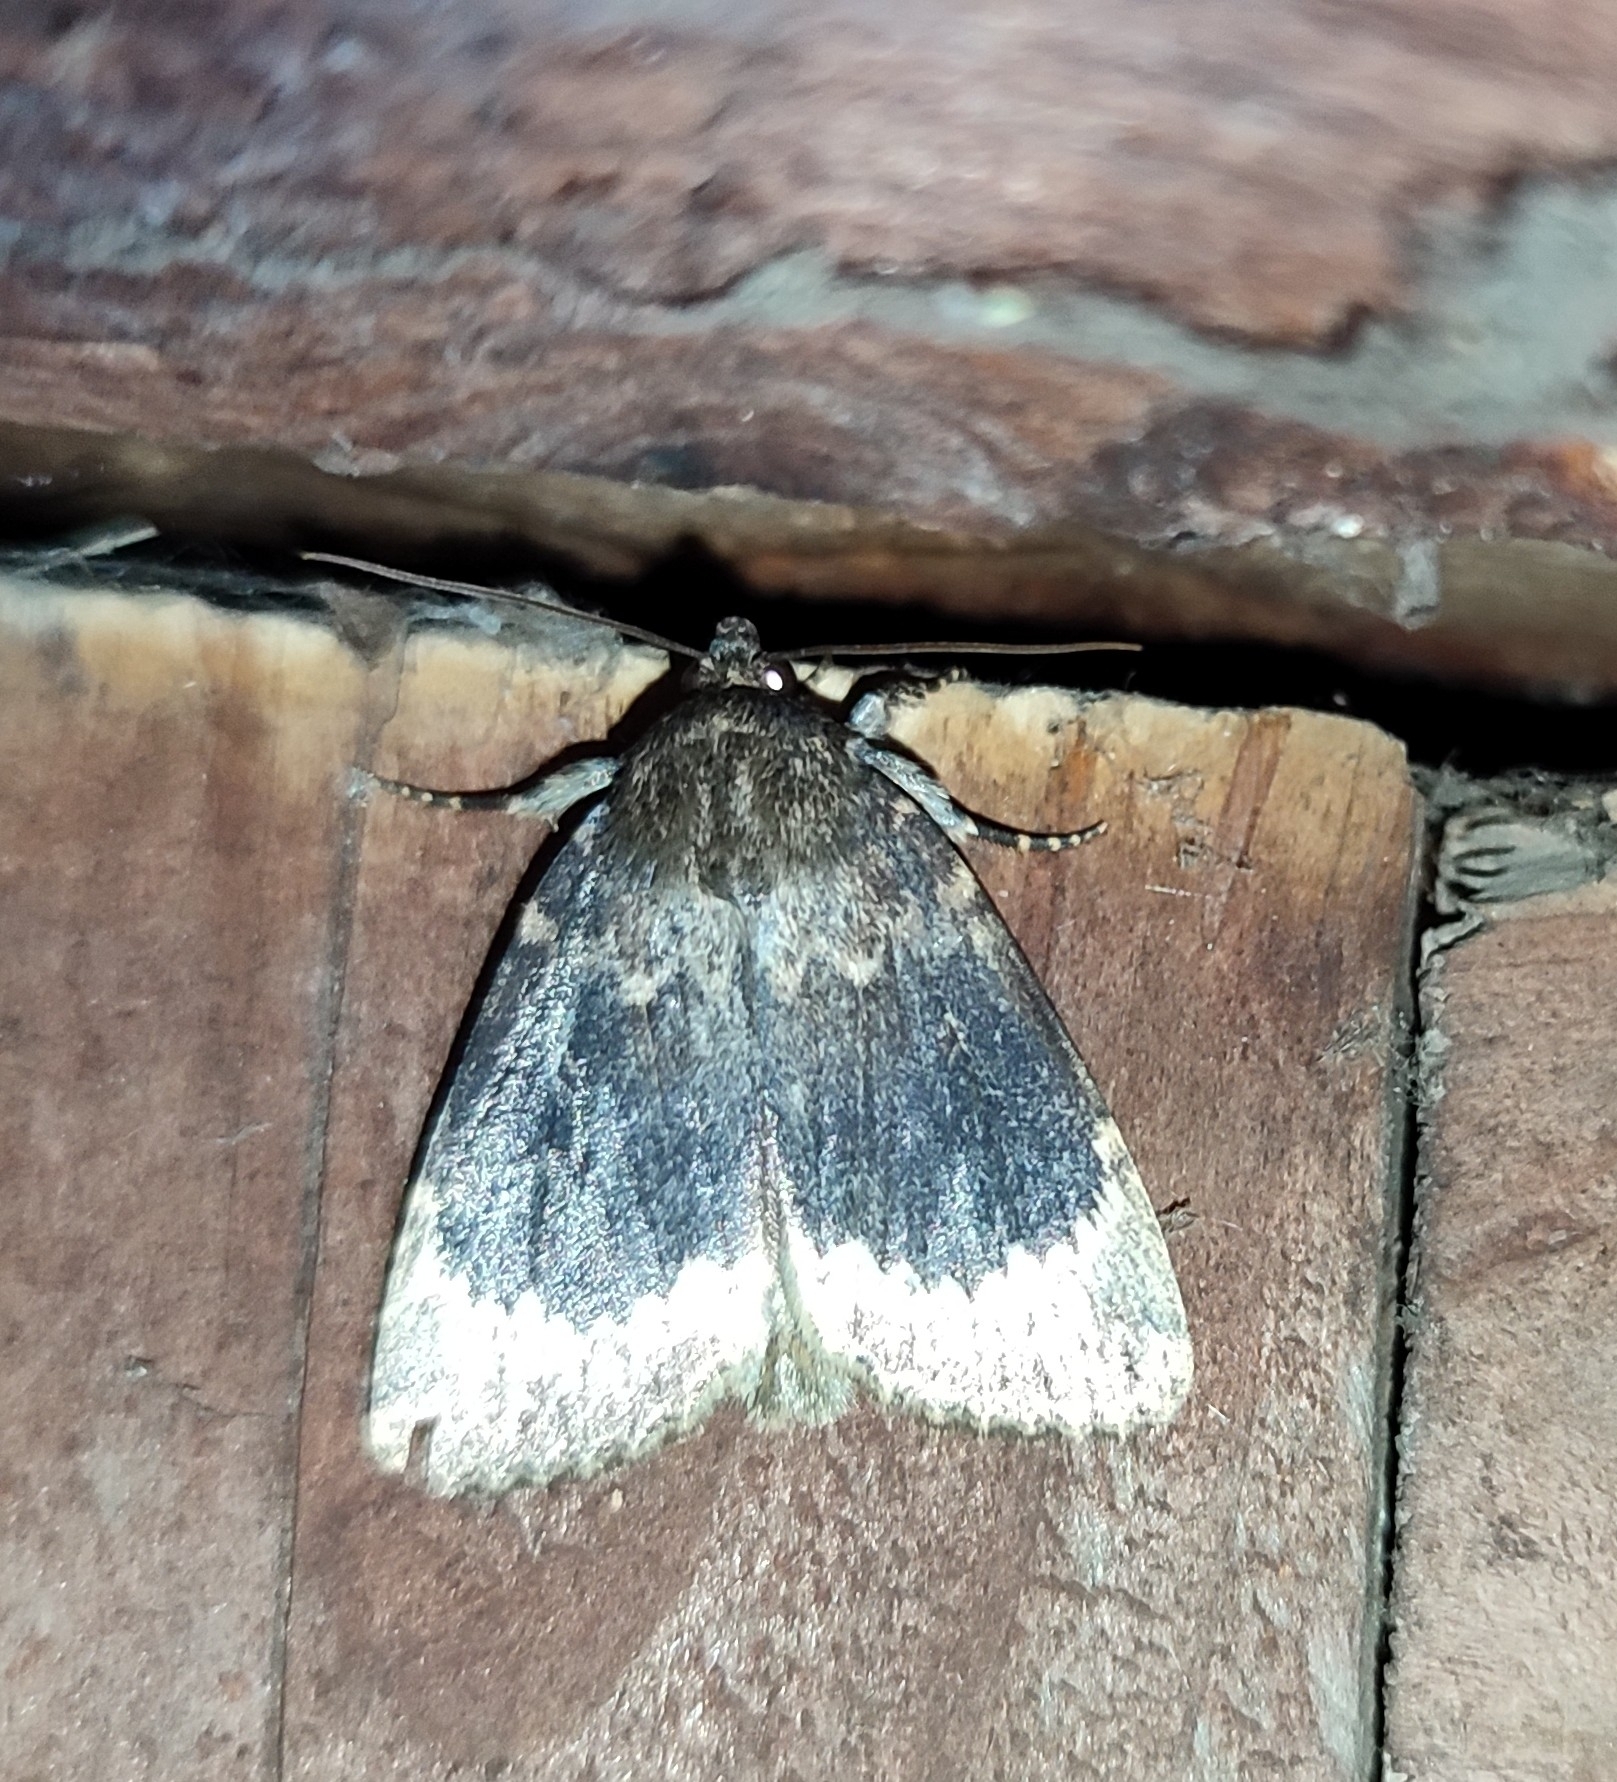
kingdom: Animalia
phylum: Arthropoda
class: Insecta
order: Lepidoptera
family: Noctuidae
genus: Amphipyra
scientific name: Amphipyra perflua
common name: Larger pale-tipped black moth
